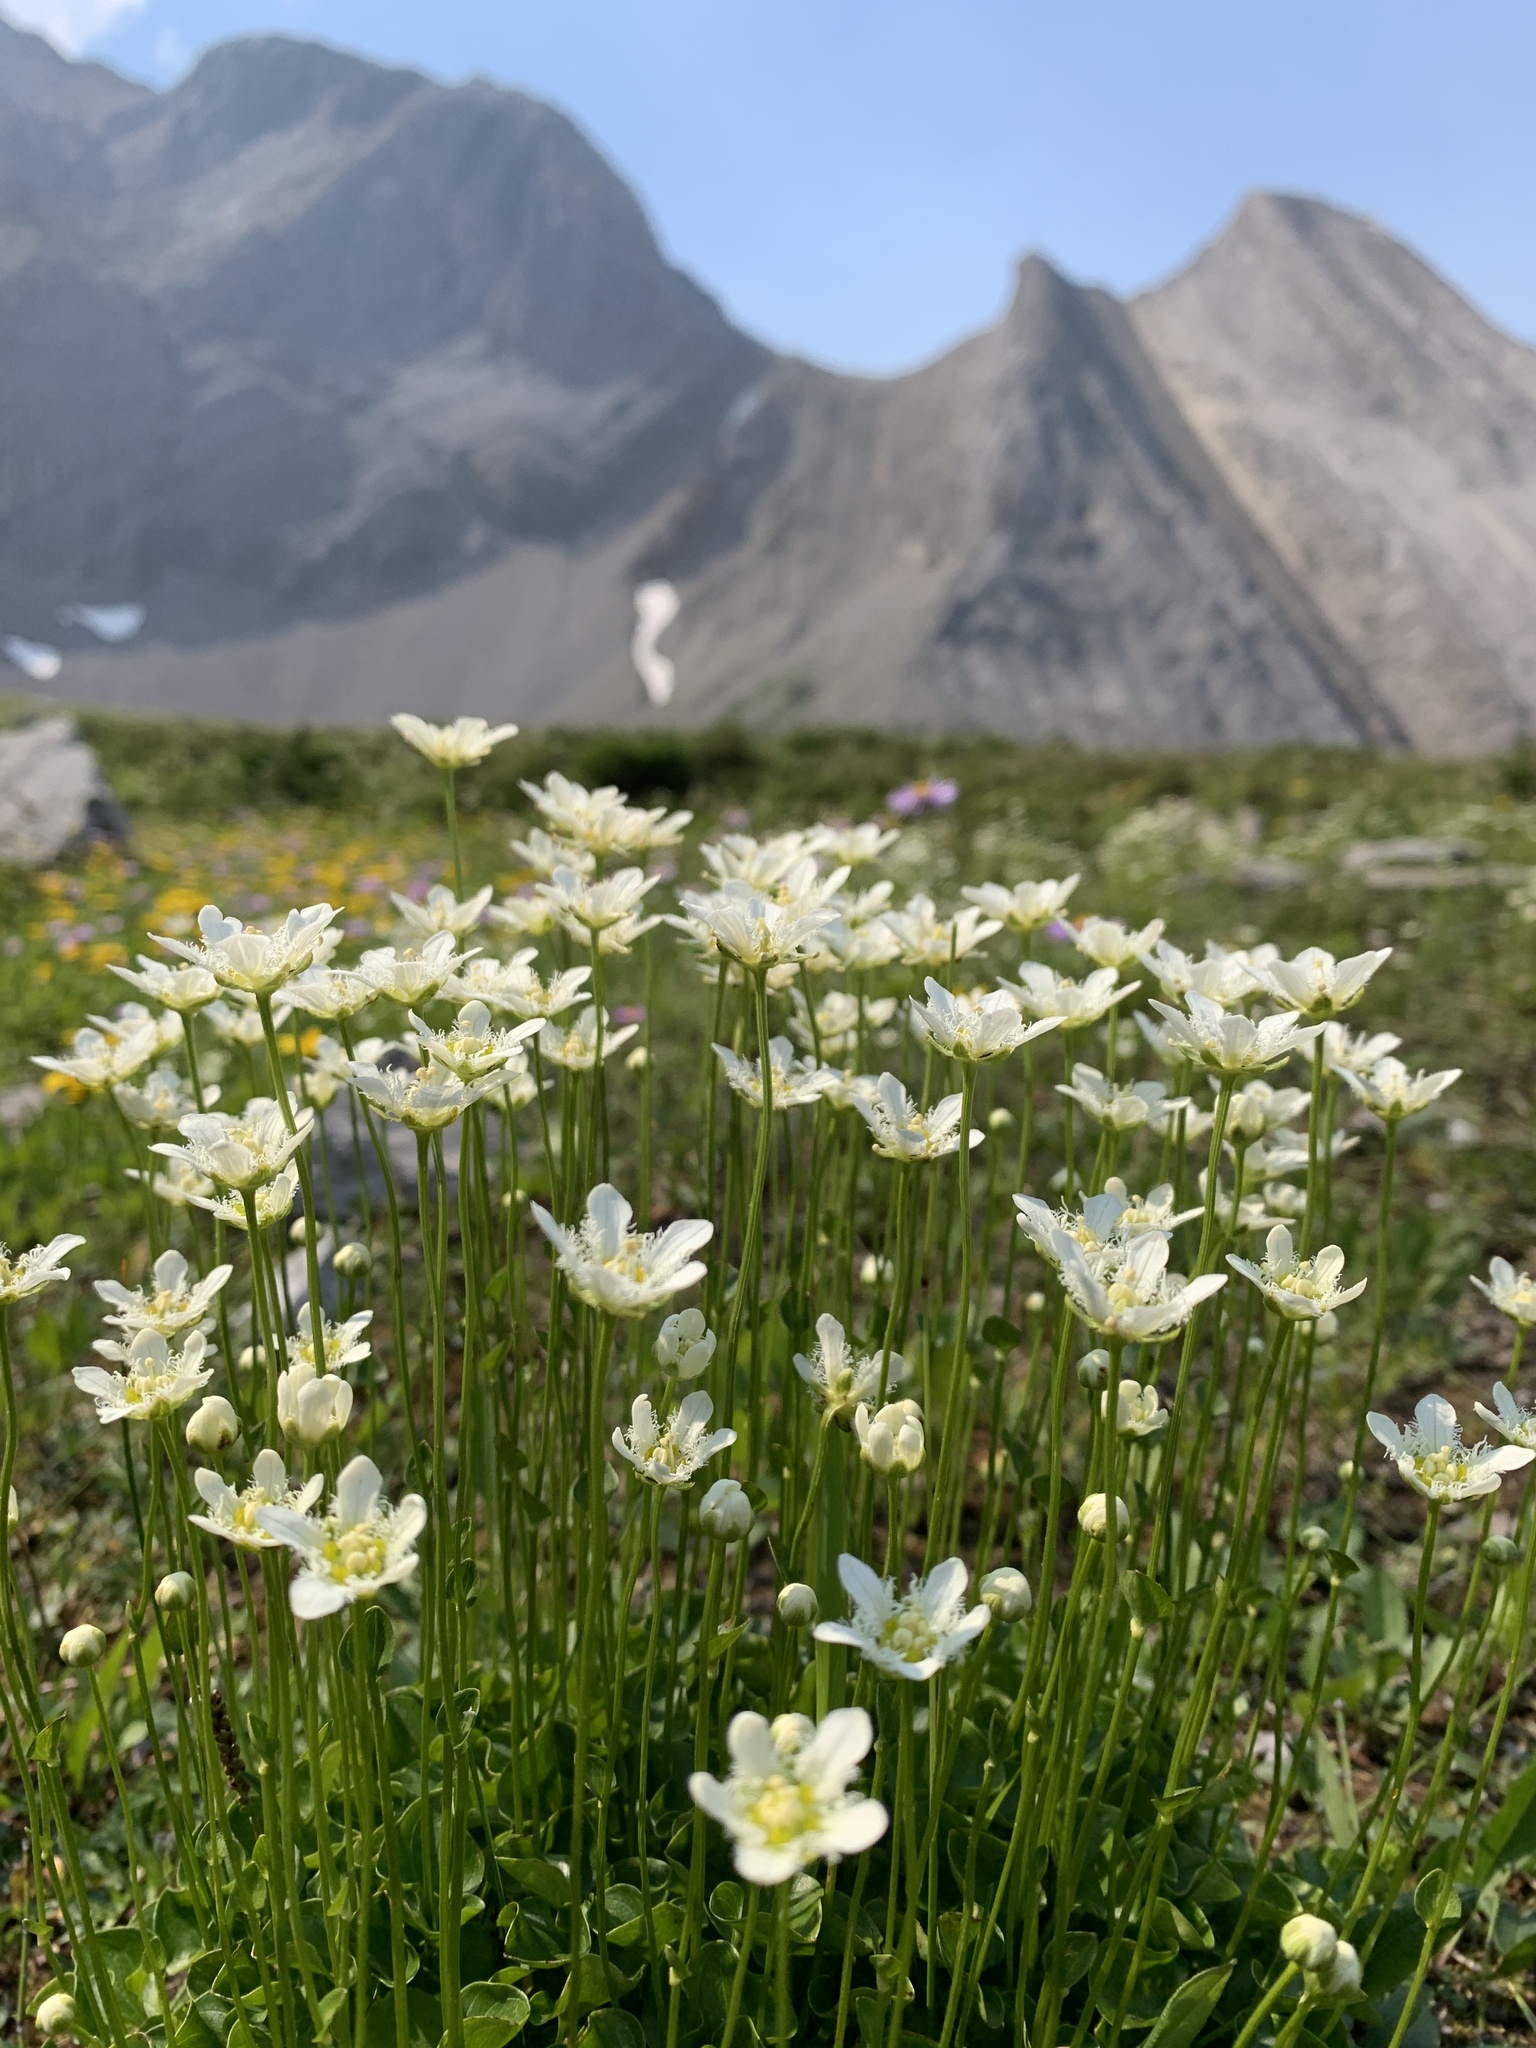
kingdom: Plantae
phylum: Tracheophyta
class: Magnoliopsida
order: Celastrales
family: Parnassiaceae
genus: Parnassia
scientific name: Parnassia fimbriata
